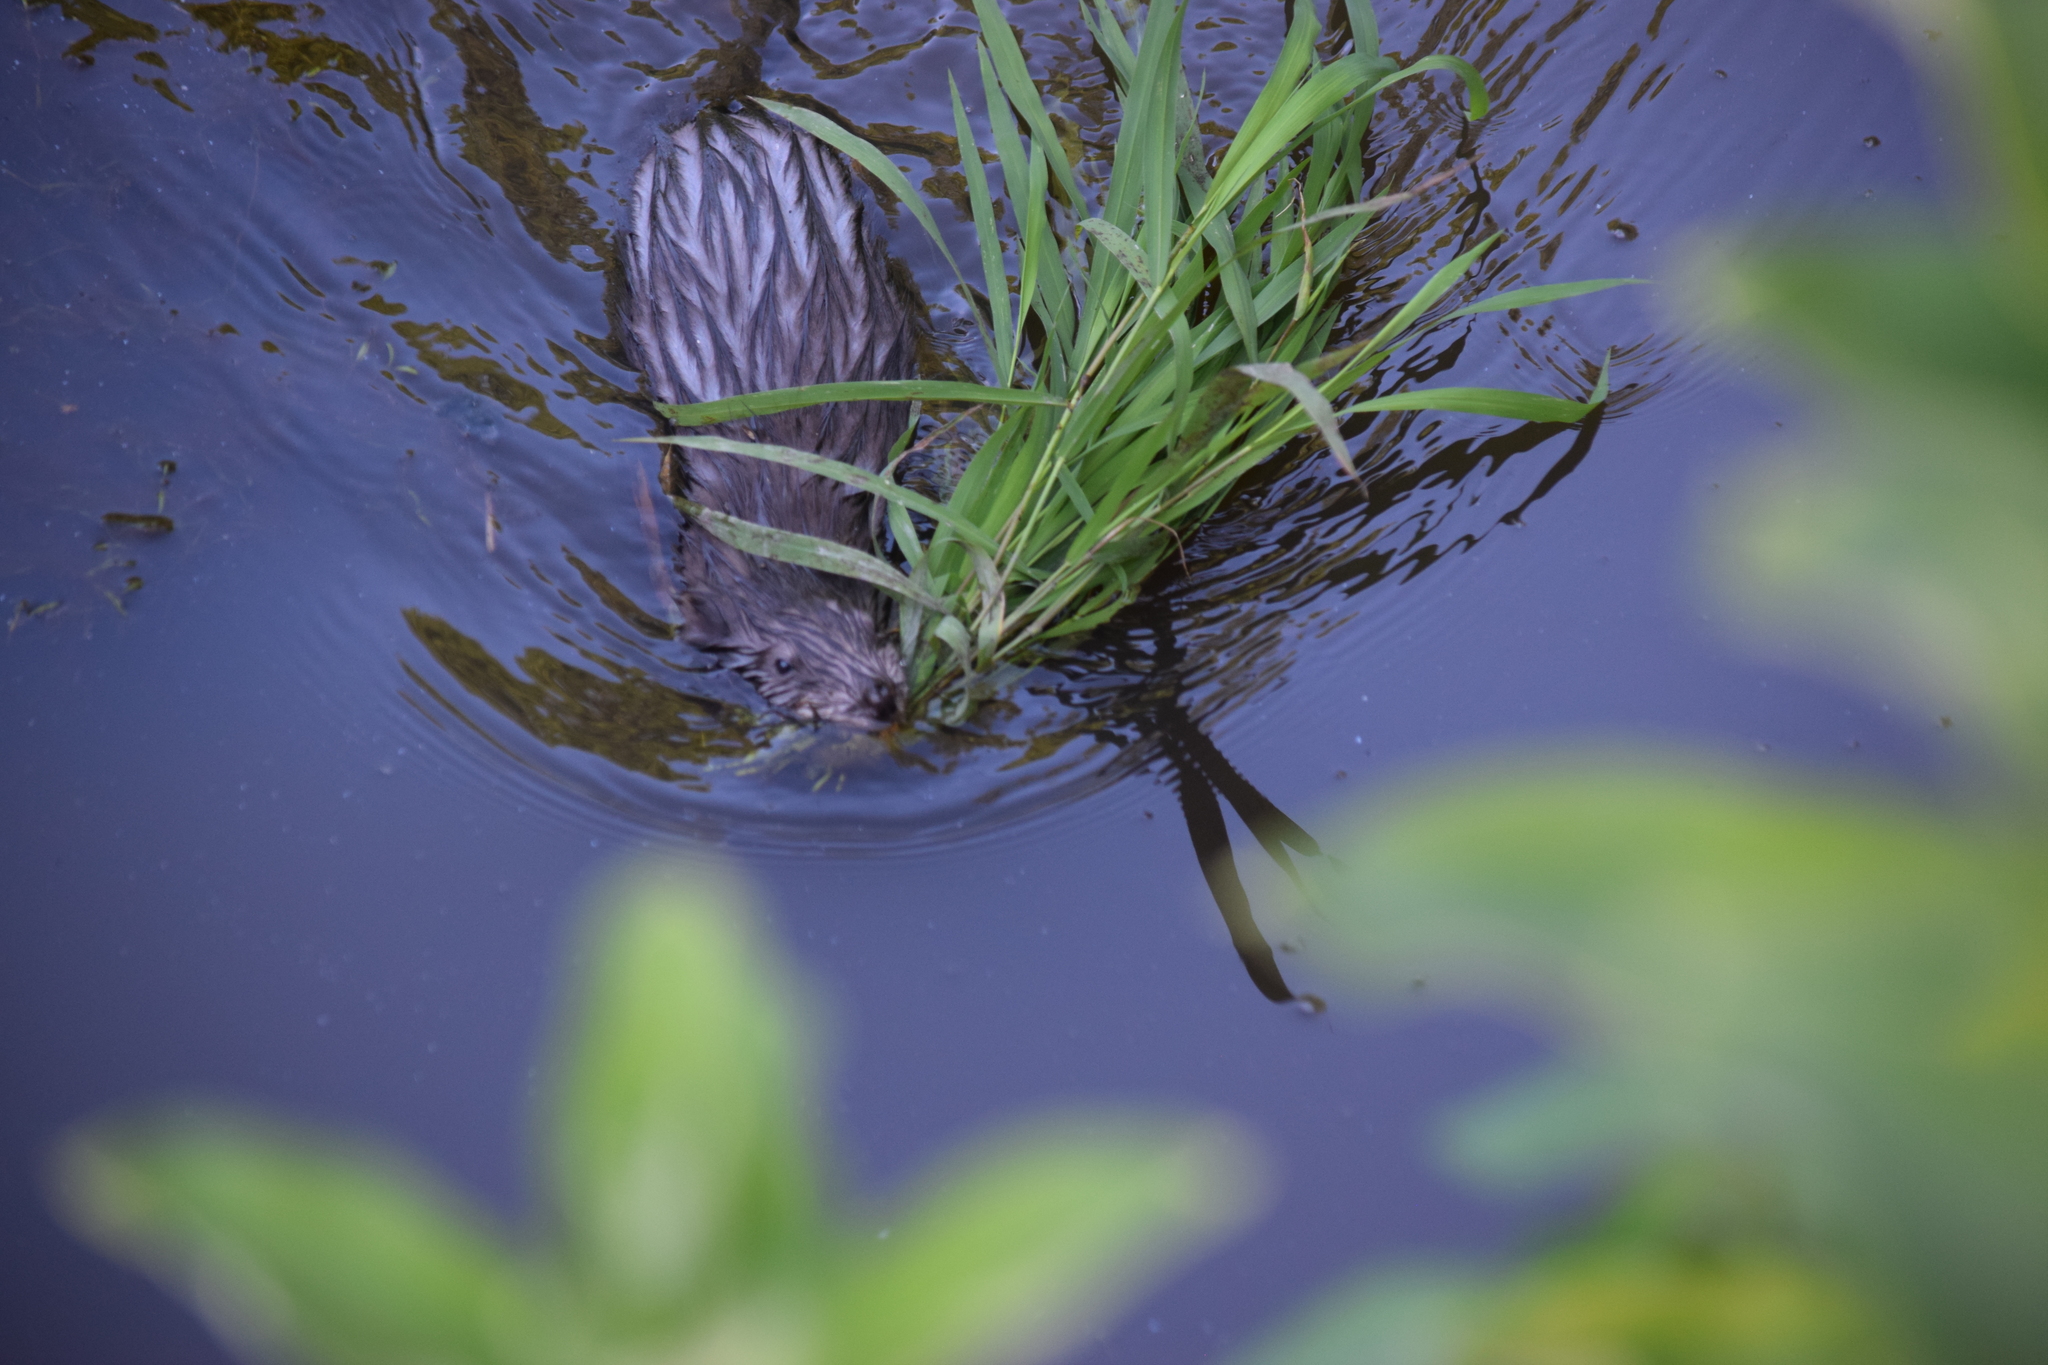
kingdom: Animalia
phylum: Chordata
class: Mammalia
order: Rodentia
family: Cricetidae
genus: Ondatra
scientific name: Ondatra zibethicus
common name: Muskrat
